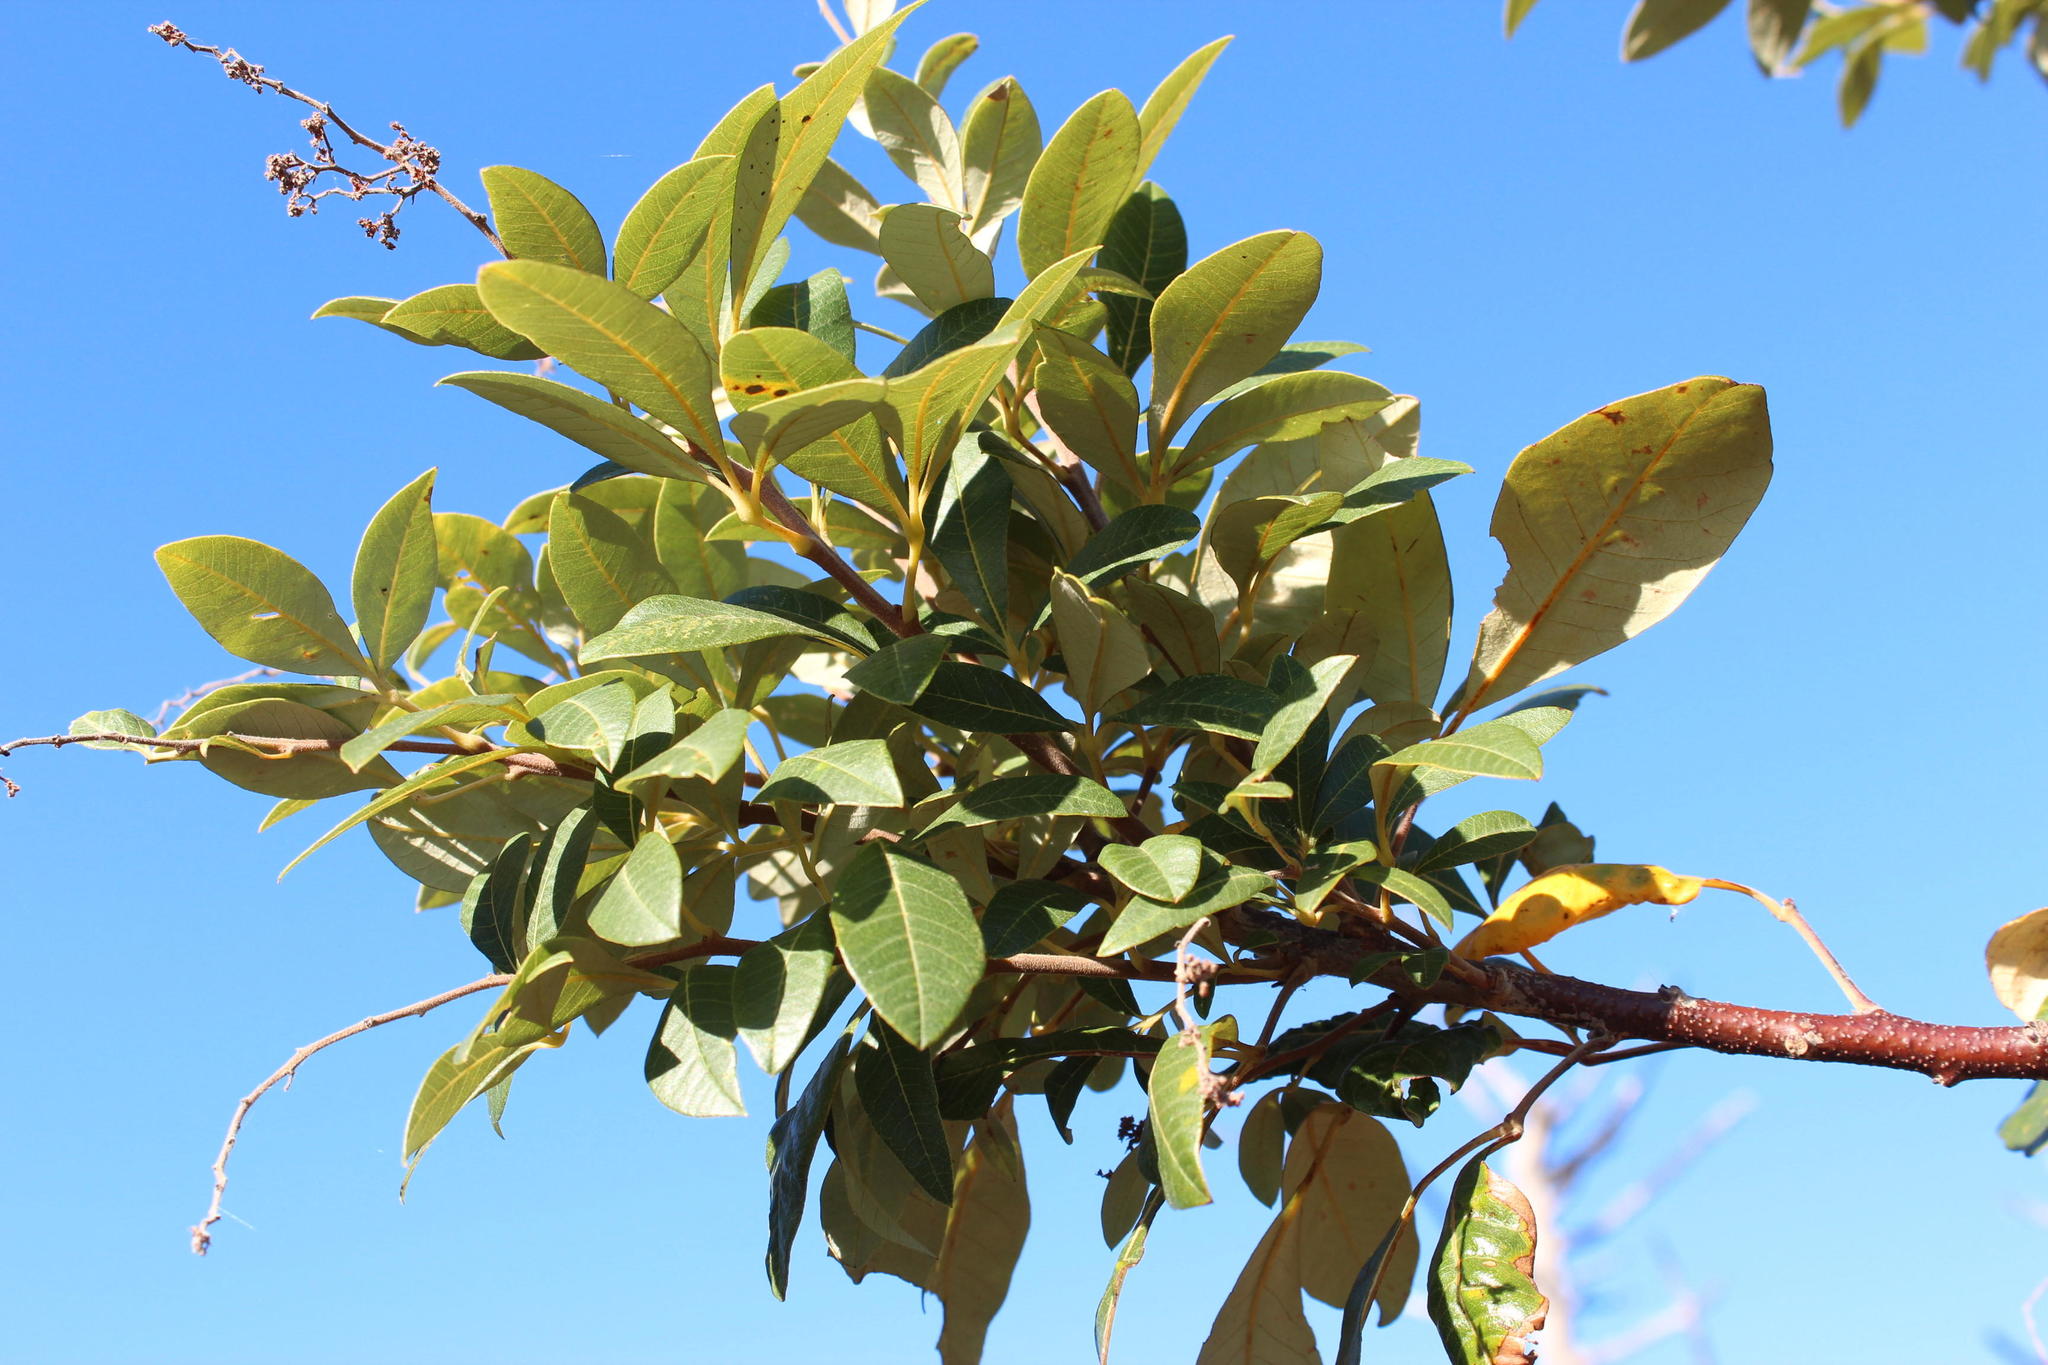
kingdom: Plantae
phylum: Tracheophyta
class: Magnoliopsida
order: Sapindales
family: Anacardiaceae
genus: Searsia
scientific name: Searsia tomentosa
